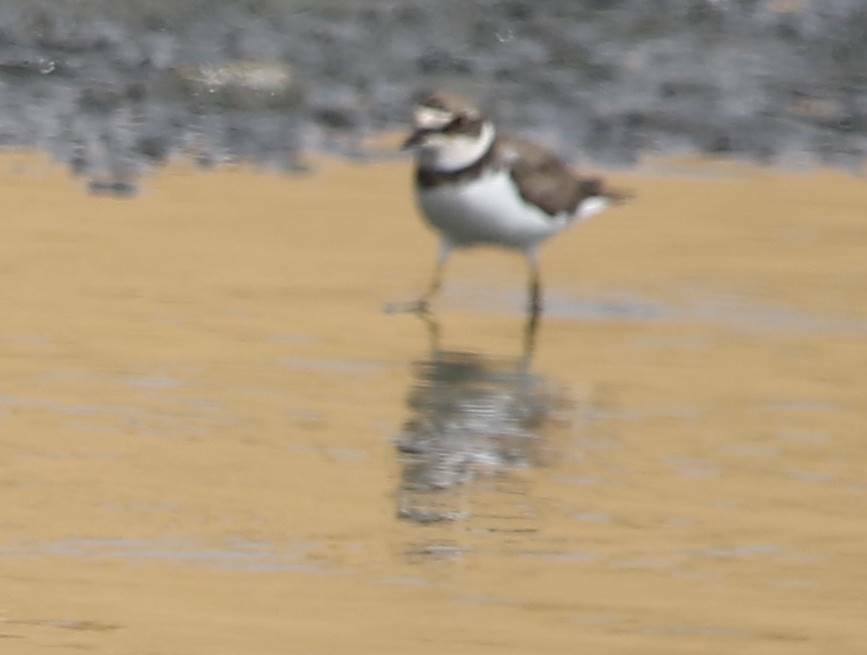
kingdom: Animalia
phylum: Chordata
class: Aves
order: Charadriiformes
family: Charadriidae
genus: Charadrius
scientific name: Charadrius dubius
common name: Little ringed plover
